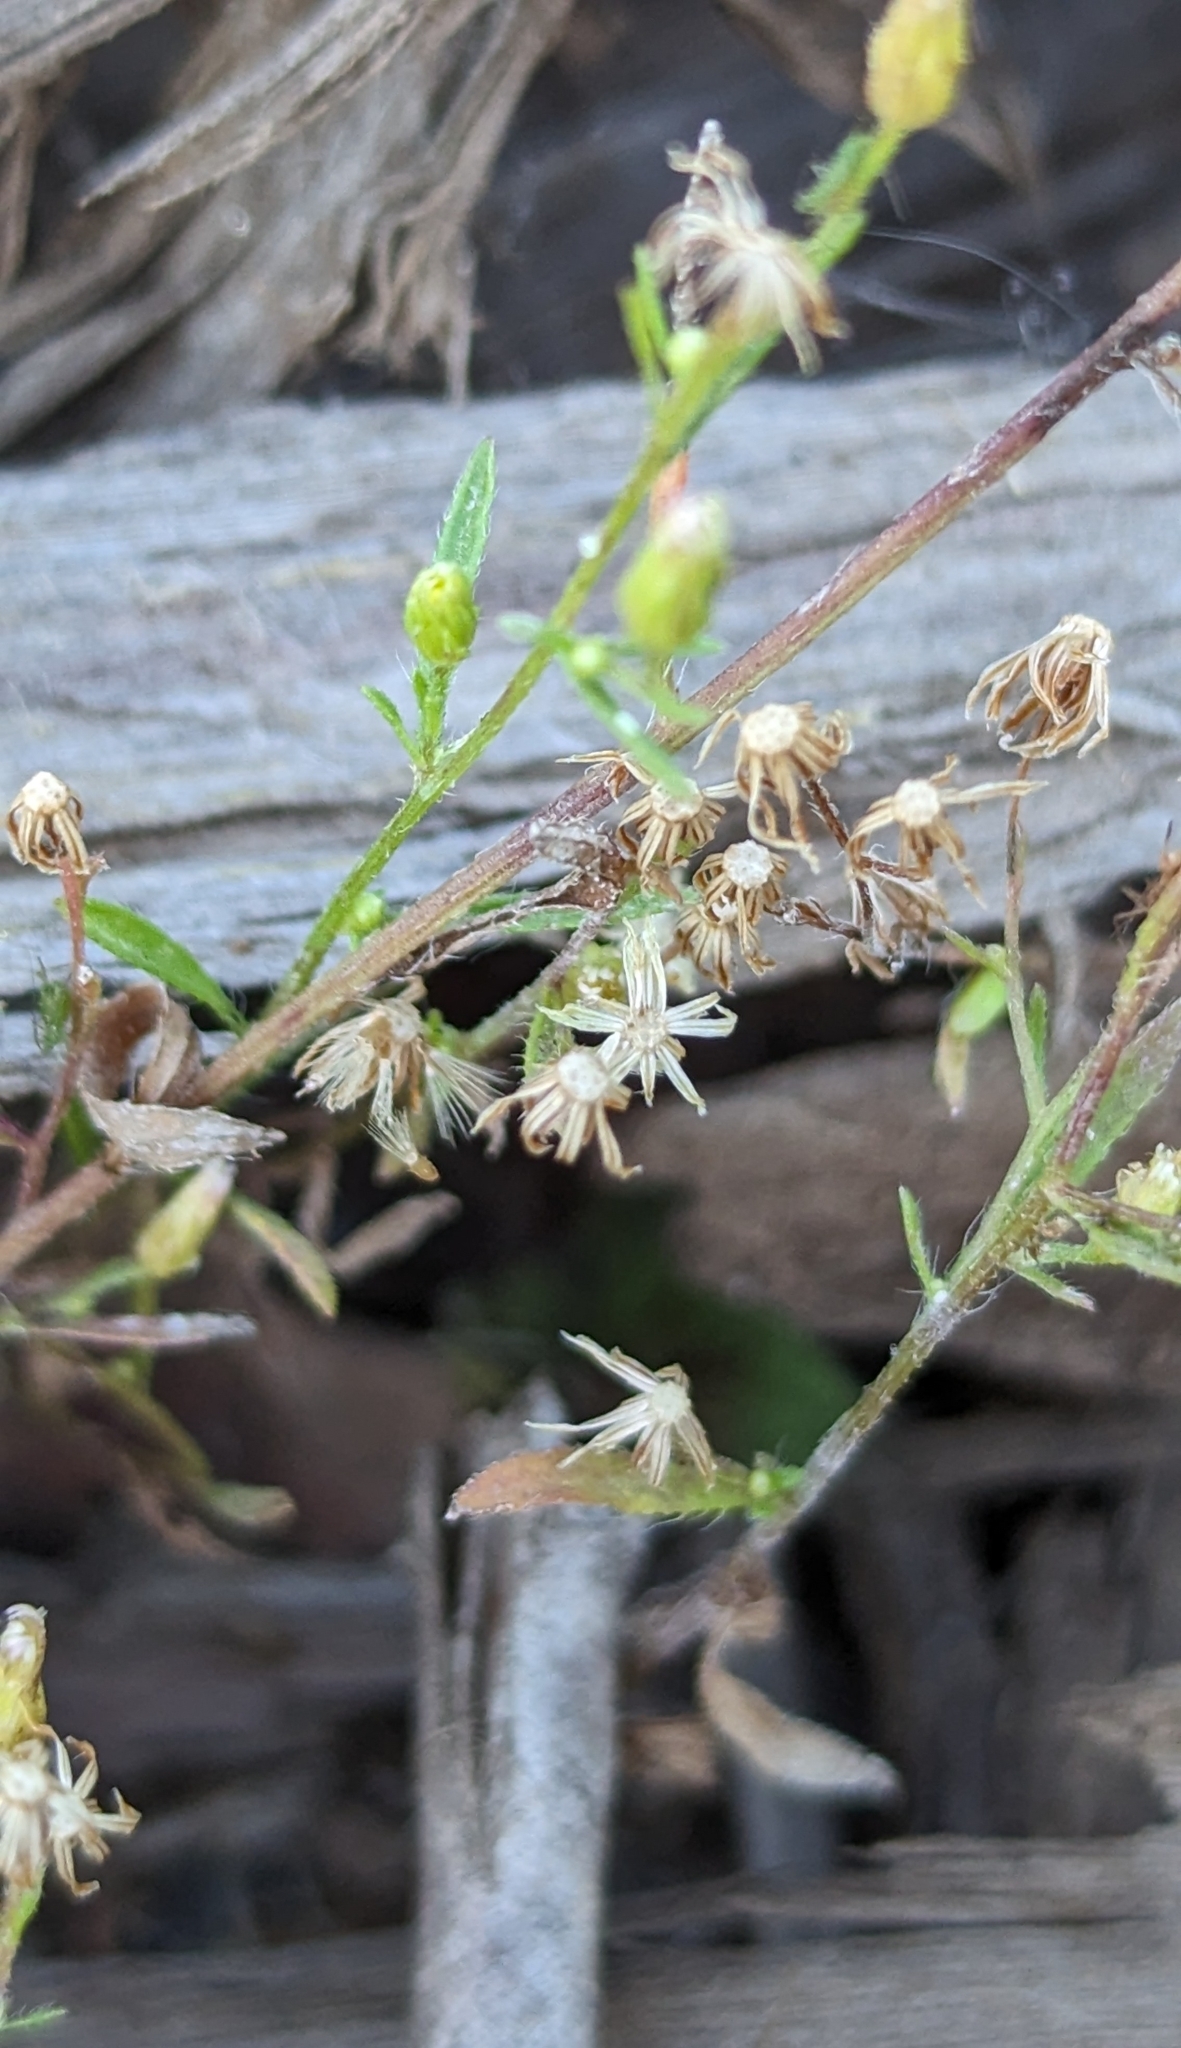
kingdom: Plantae
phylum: Tracheophyta
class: Magnoliopsida
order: Asterales
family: Asteraceae
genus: Erigeron
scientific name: Erigeron canadensis
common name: Canadian fleabane
